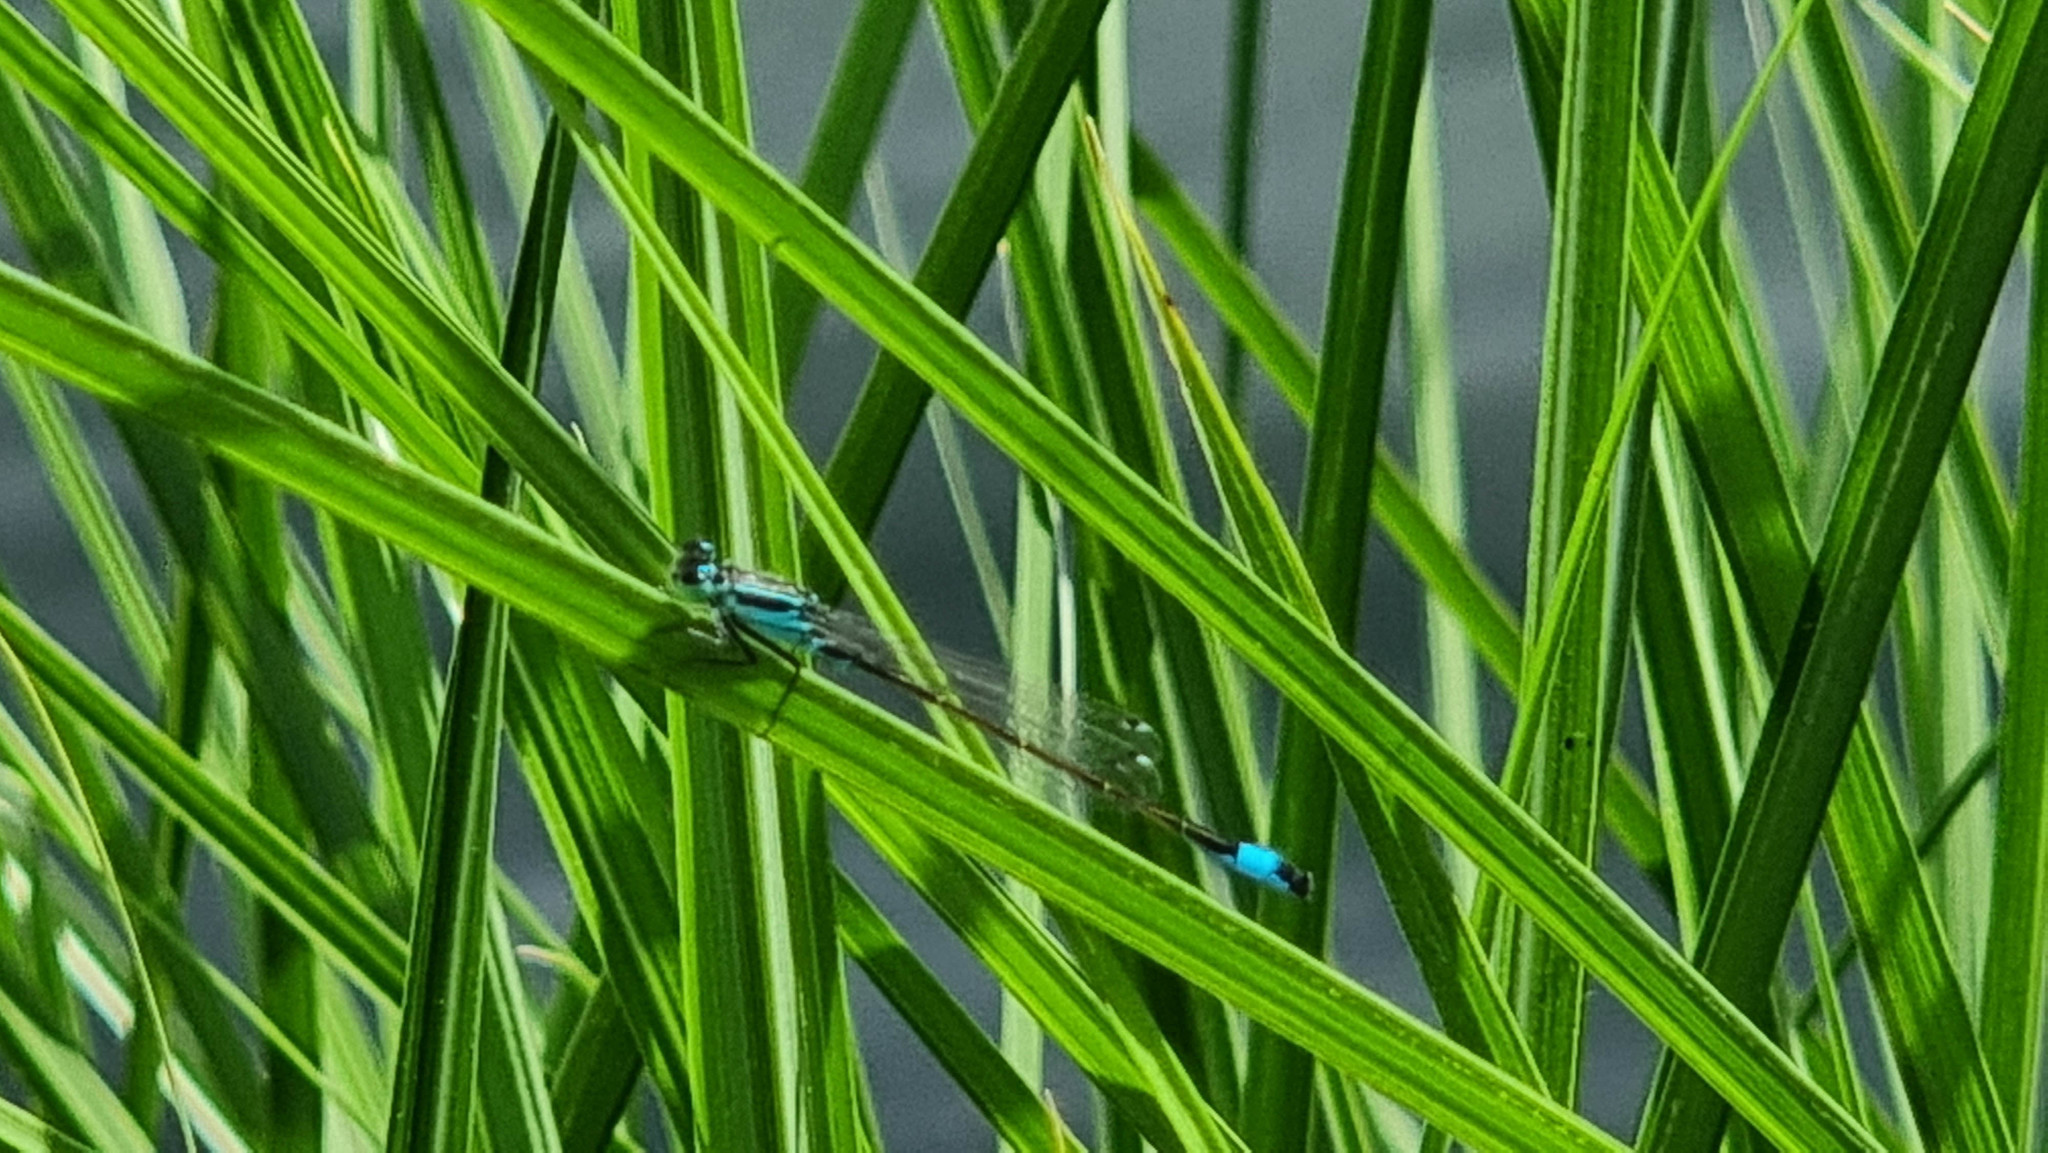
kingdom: Animalia
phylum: Arthropoda
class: Insecta
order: Odonata
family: Coenagrionidae
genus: Ischnura
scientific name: Ischnura elegans
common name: Blue-tailed damselfly
